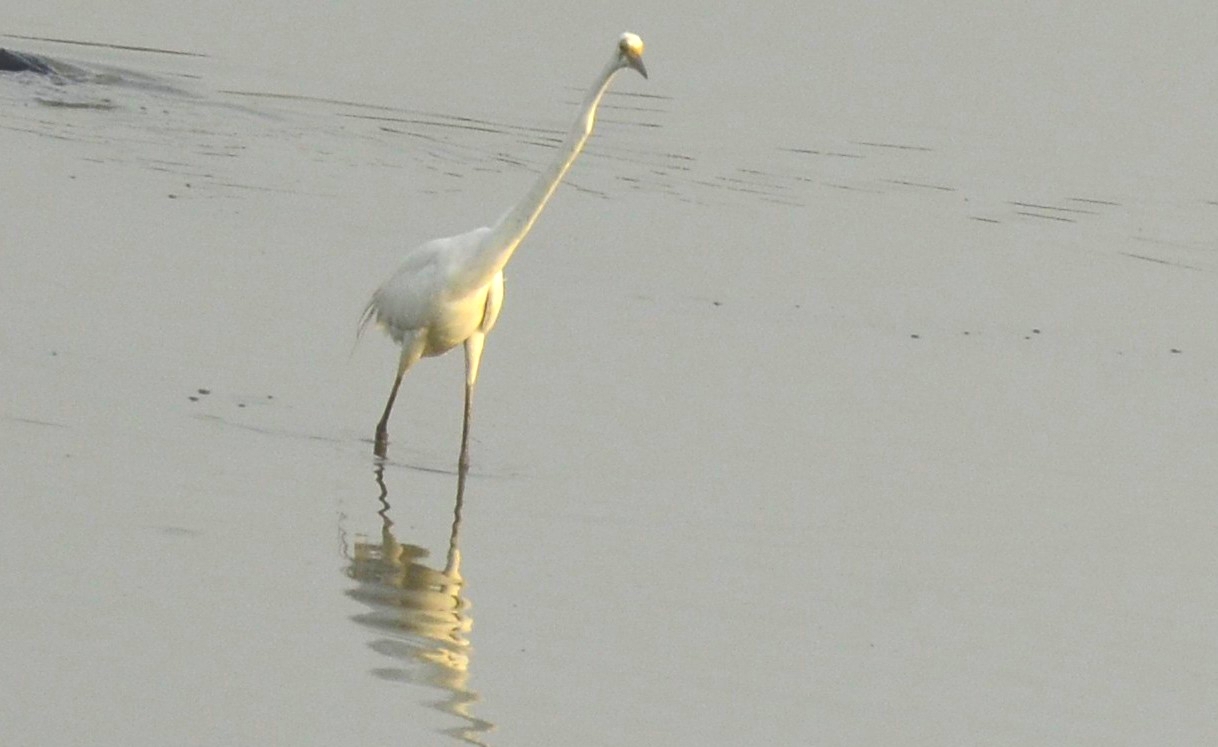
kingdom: Animalia
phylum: Chordata
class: Aves
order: Pelecaniformes
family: Ardeidae
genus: Ardea
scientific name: Ardea alba
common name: Great egret
